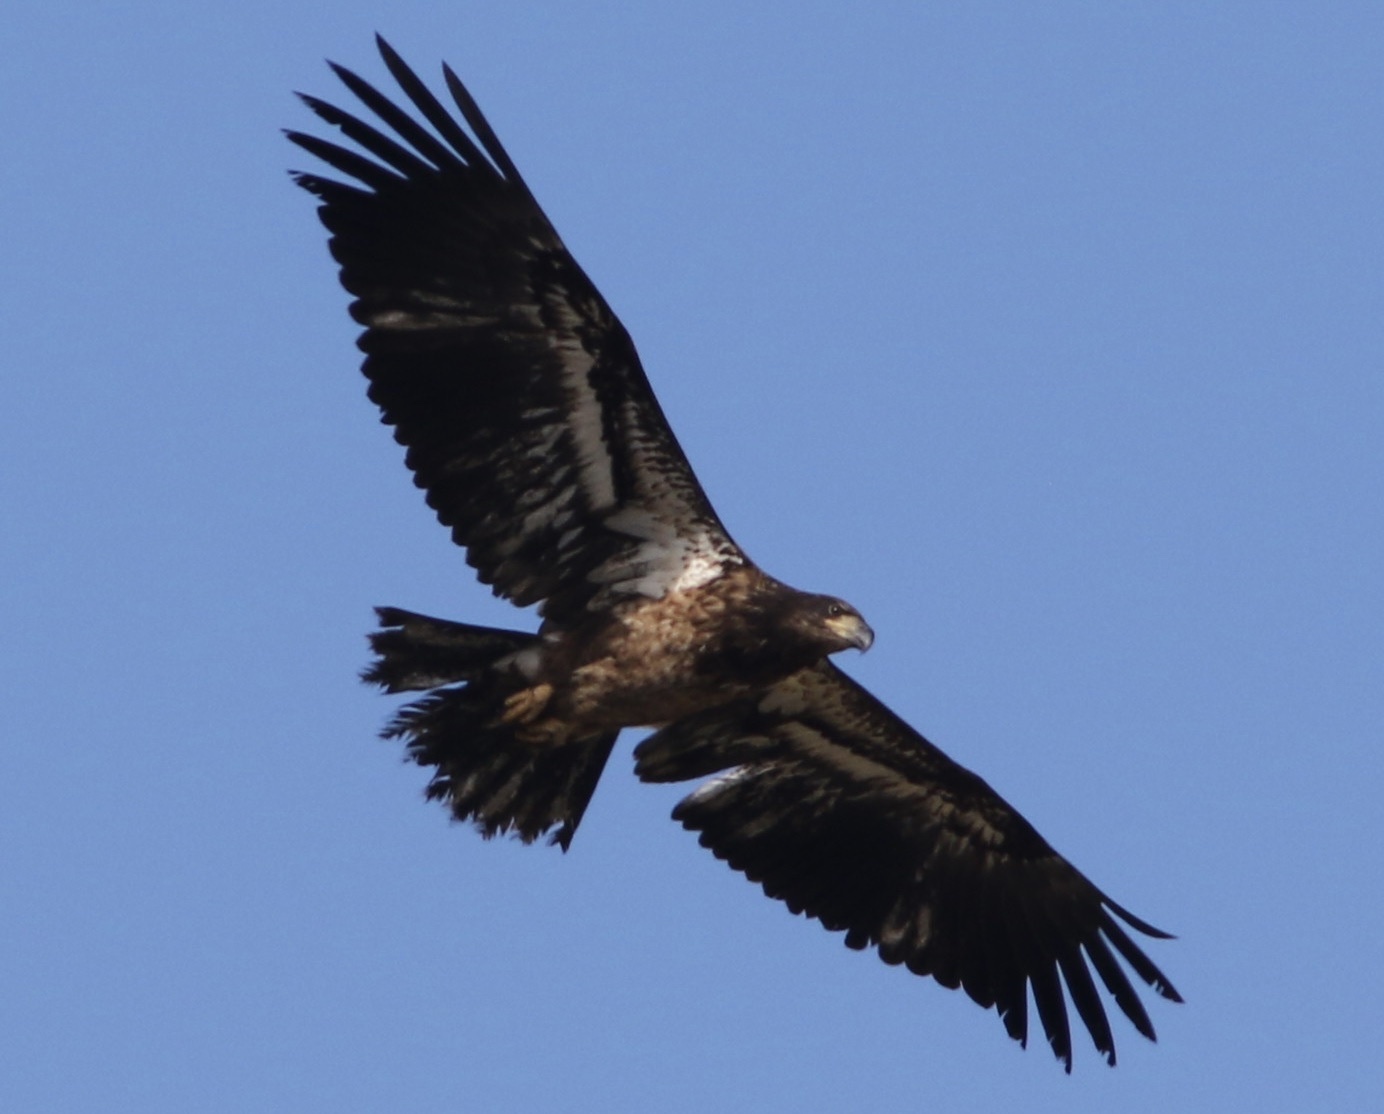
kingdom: Animalia
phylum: Chordata
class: Aves
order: Accipitriformes
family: Accipitridae
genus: Haliaeetus
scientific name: Haliaeetus leucocephalus
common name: Bald eagle
